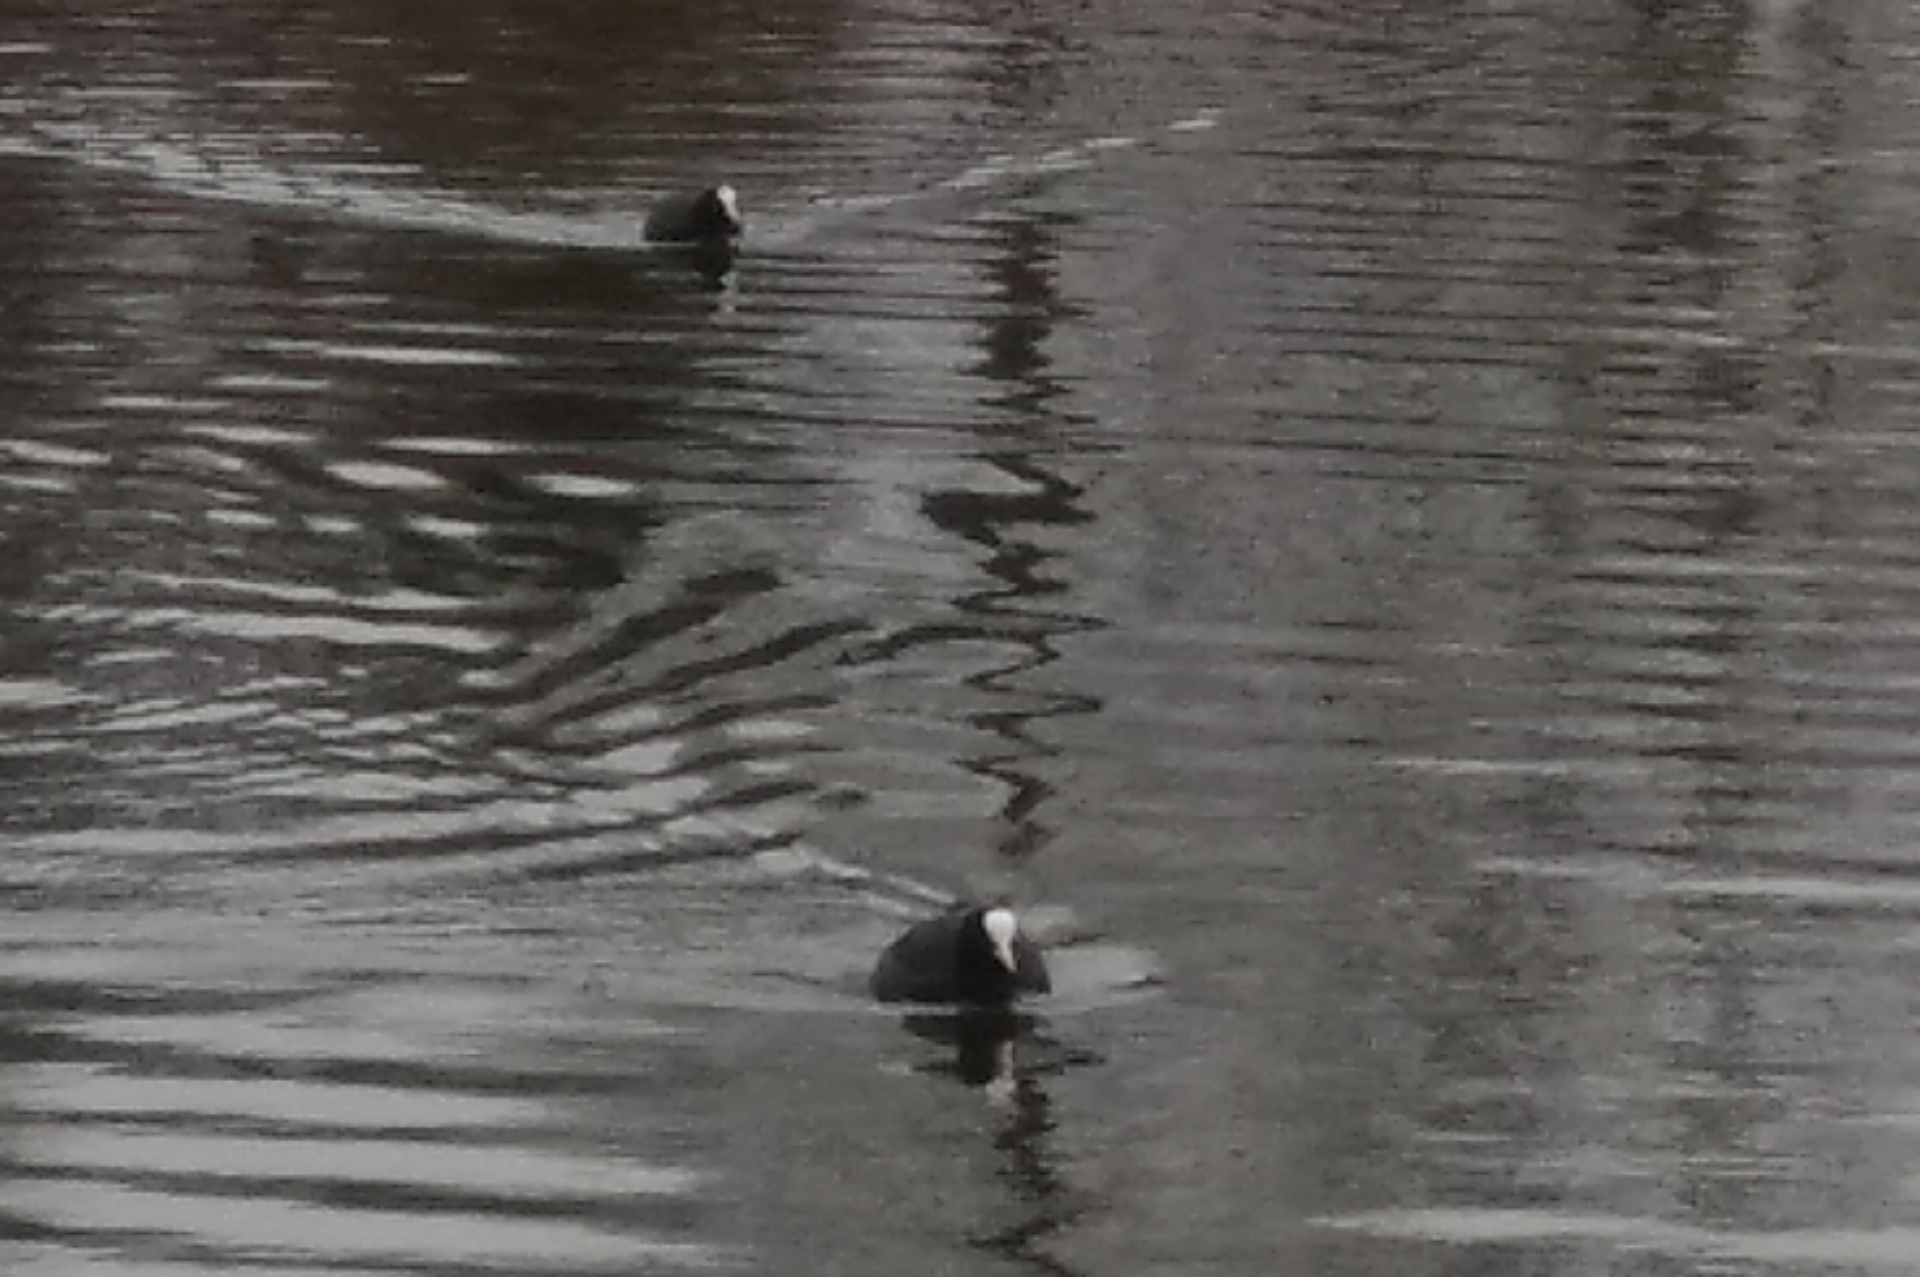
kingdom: Animalia
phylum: Chordata
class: Aves
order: Gruiformes
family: Rallidae
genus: Fulica
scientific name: Fulica atra
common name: Eurasian coot
